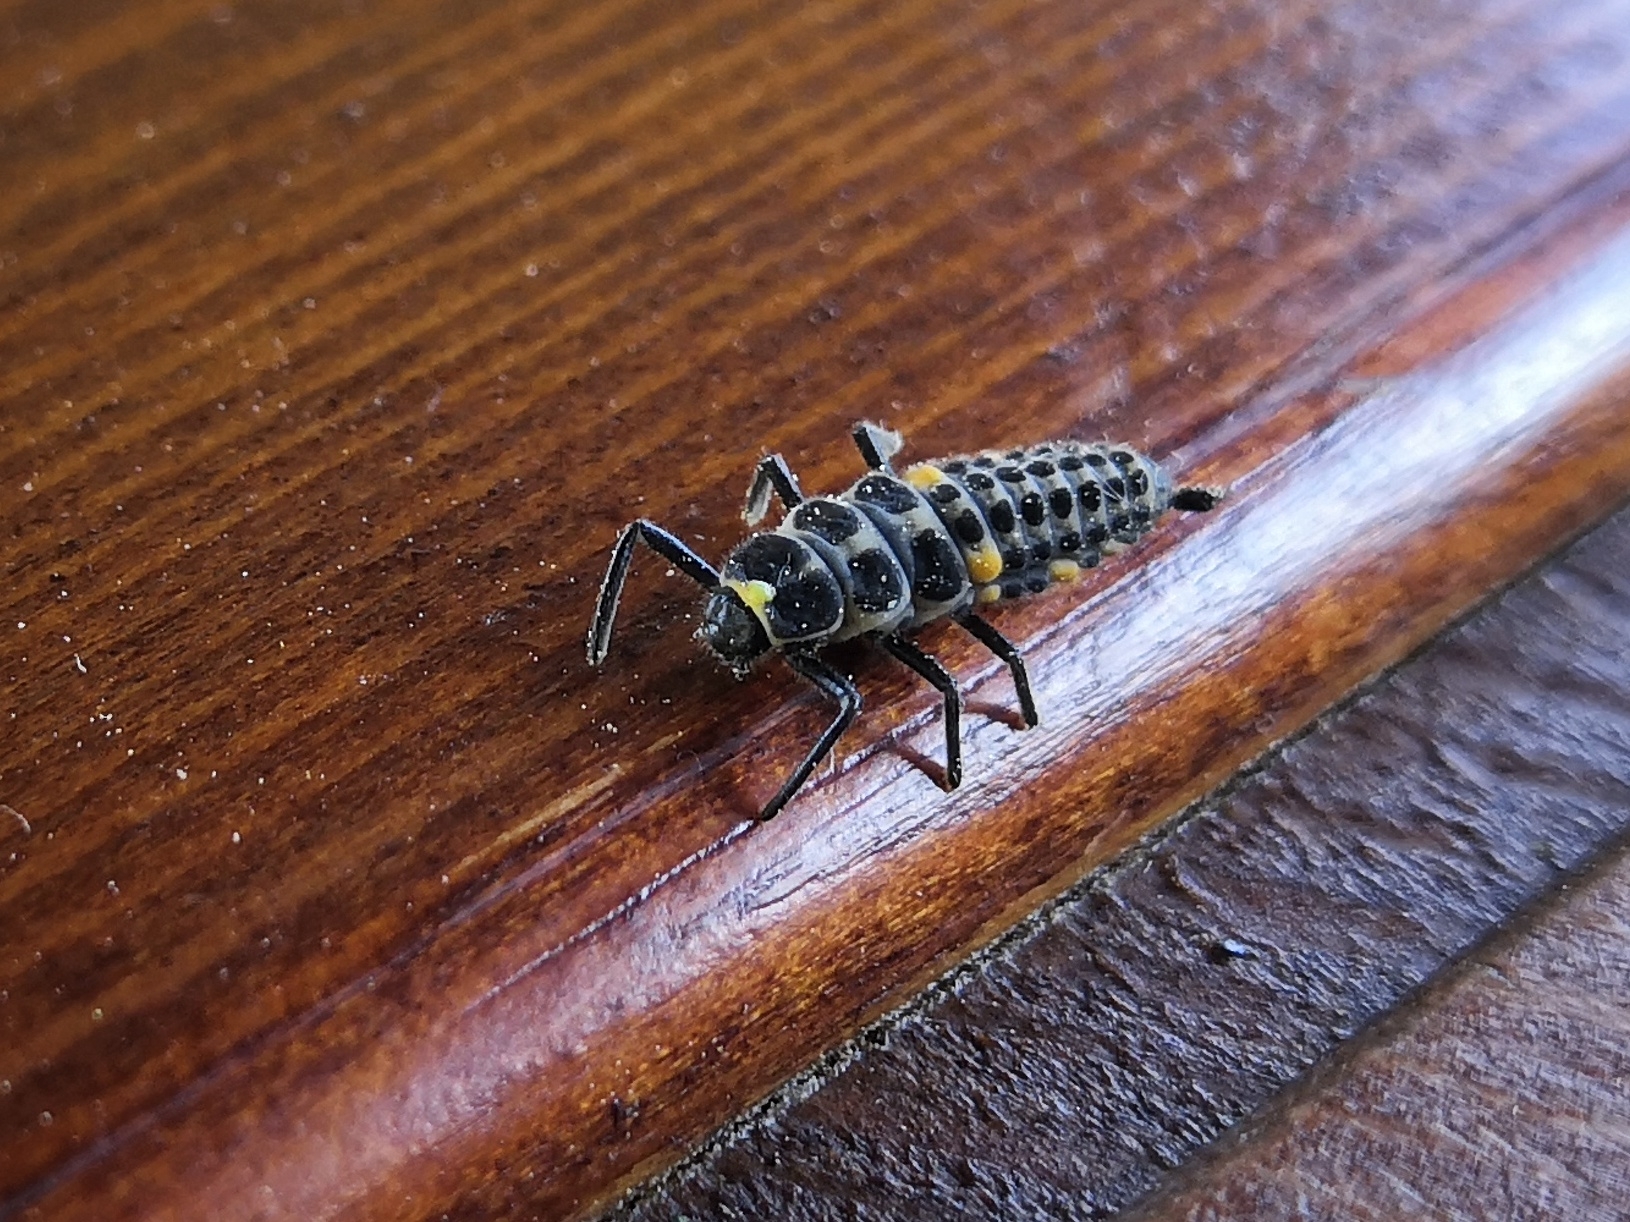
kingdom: Animalia
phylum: Arthropoda
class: Insecta
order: Coleoptera
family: Coccinellidae
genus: Myzia
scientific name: Myzia oblongoguttata
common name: Striped ladybird
